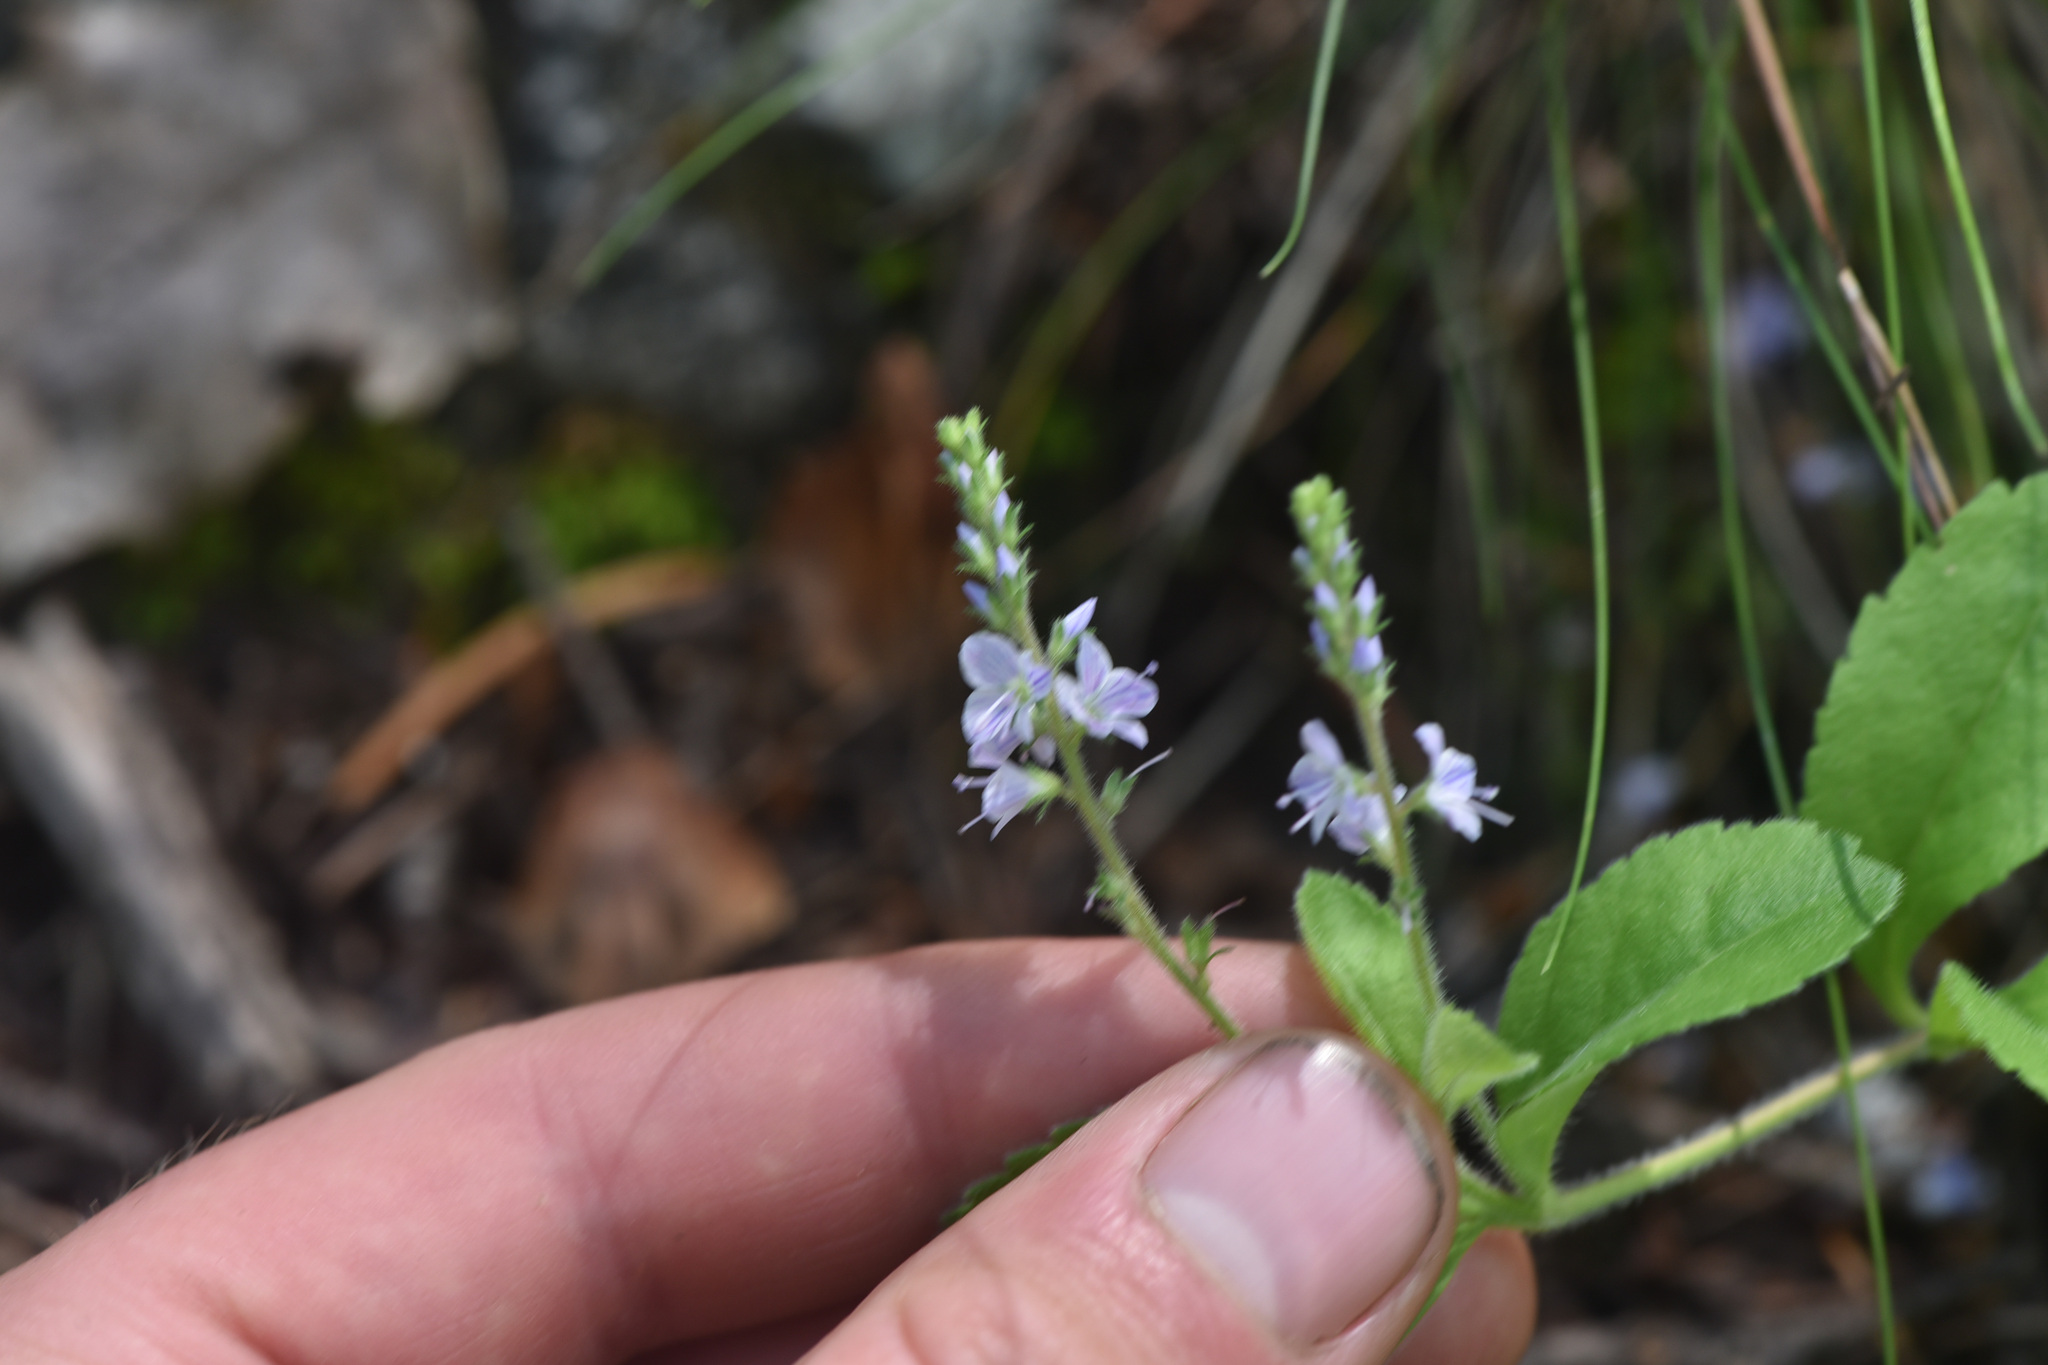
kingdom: Plantae
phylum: Tracheophyta
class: Magnoliopsida
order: Lamiales
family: Plantaginaceae
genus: Veronica
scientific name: Veronica officinalis
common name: Common speedwell
